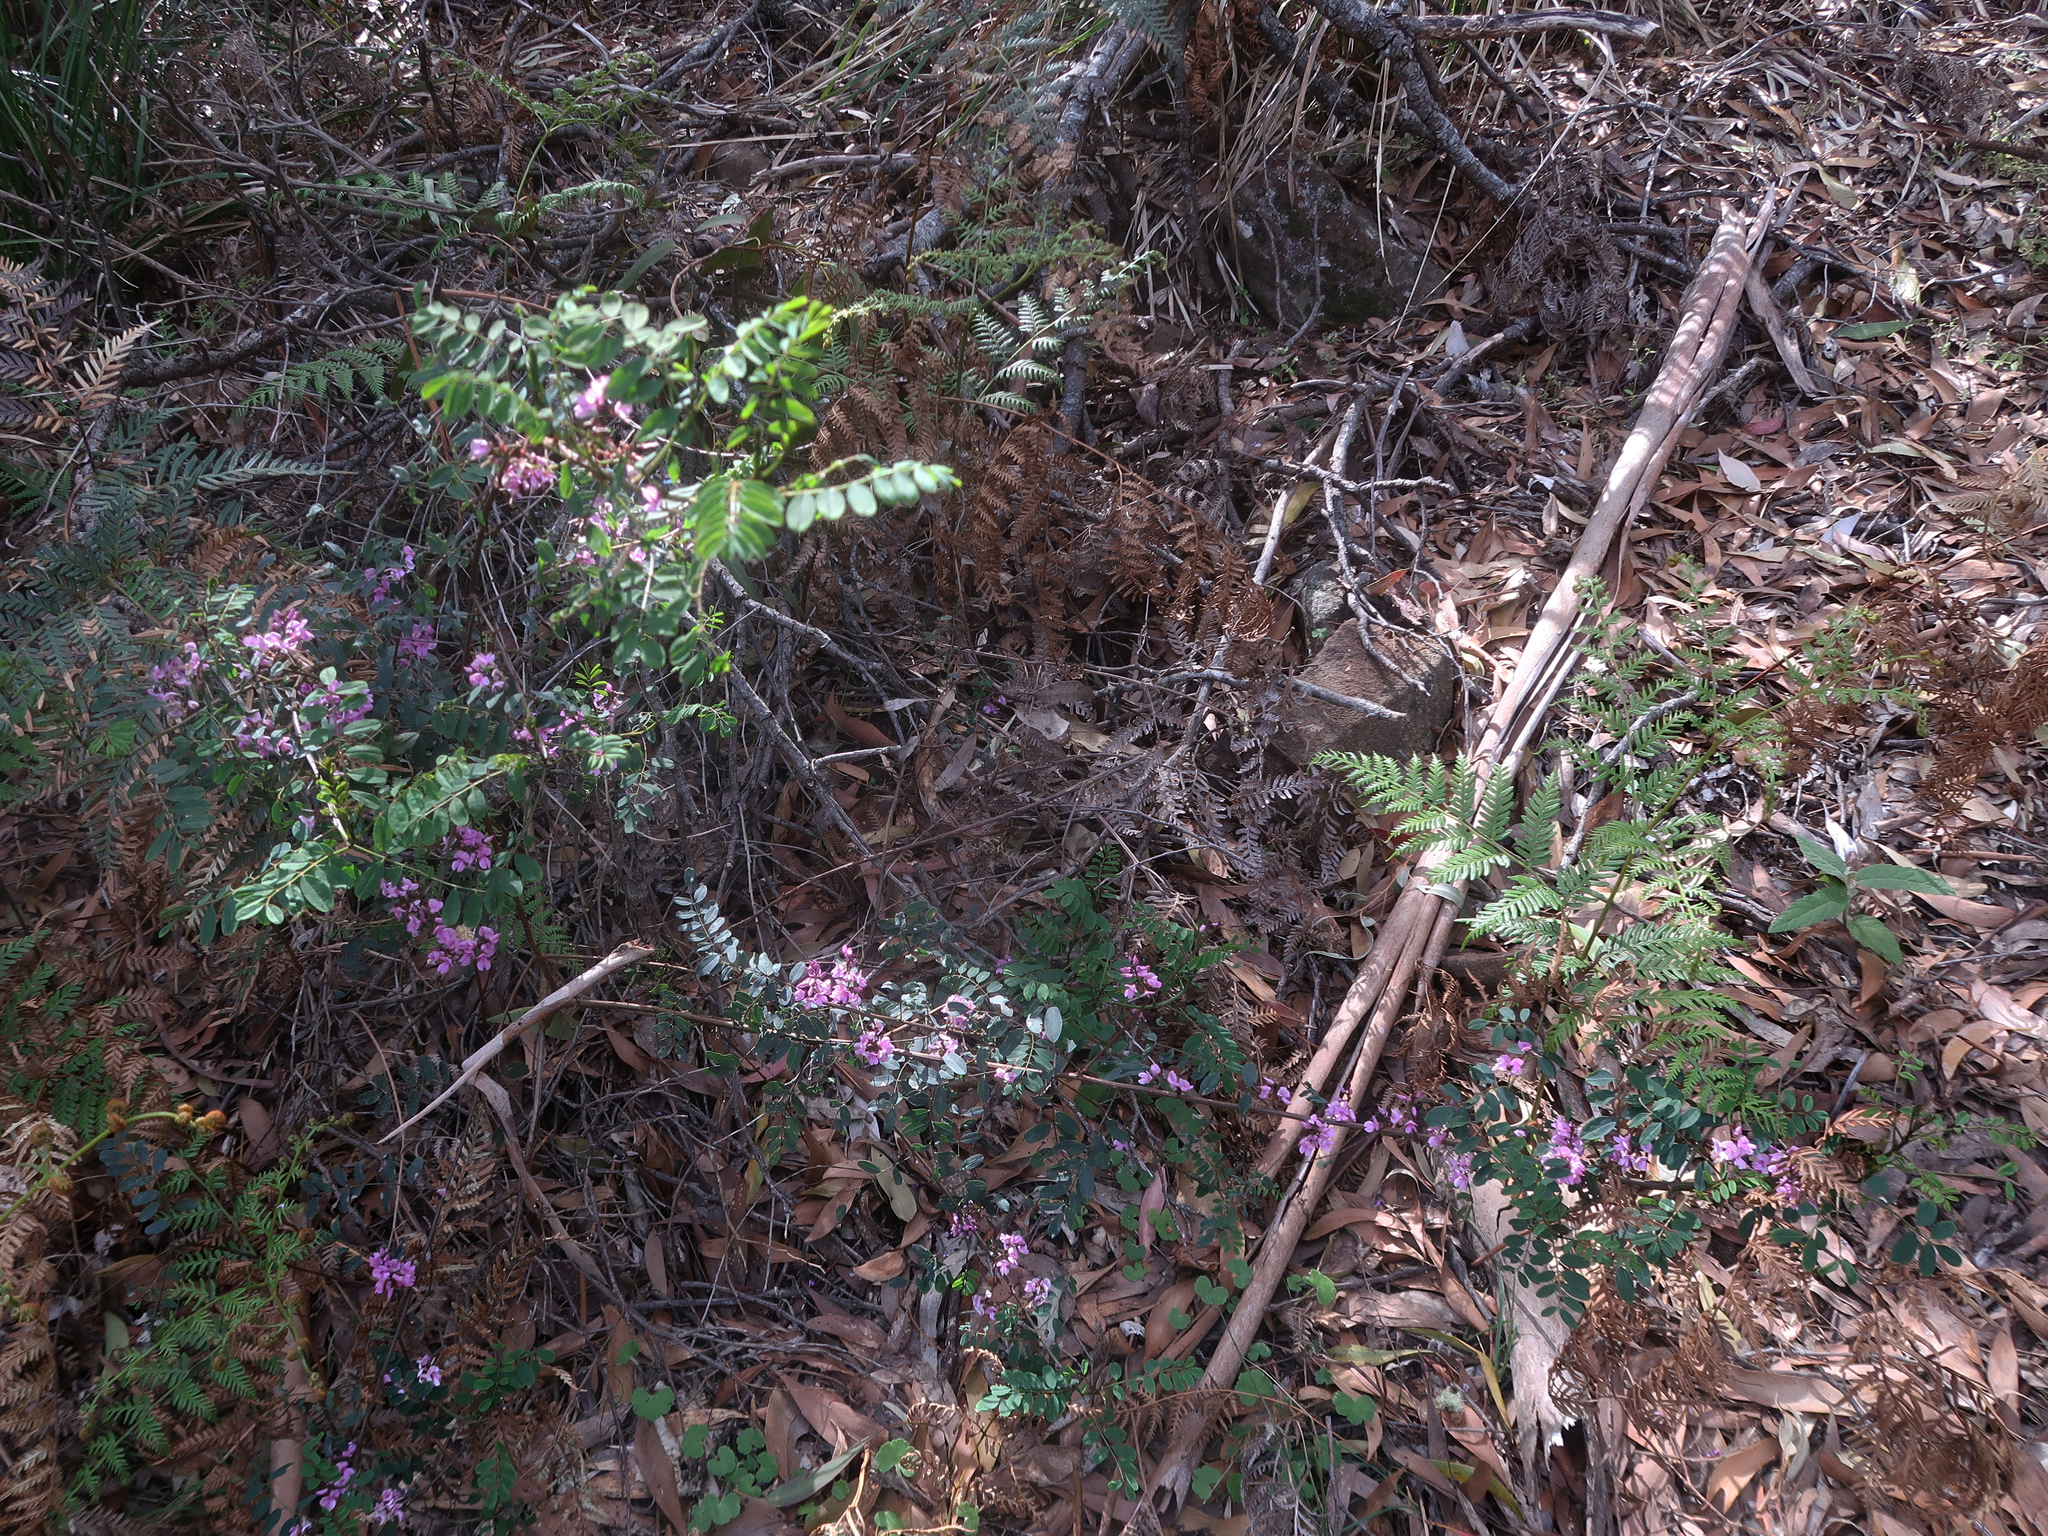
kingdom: Plantae
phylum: Tracheophyta
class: Magnoliopsida
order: Fabales
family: Fabaceae
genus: Indigofera
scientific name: Indigofera australis
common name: Australian indigo
